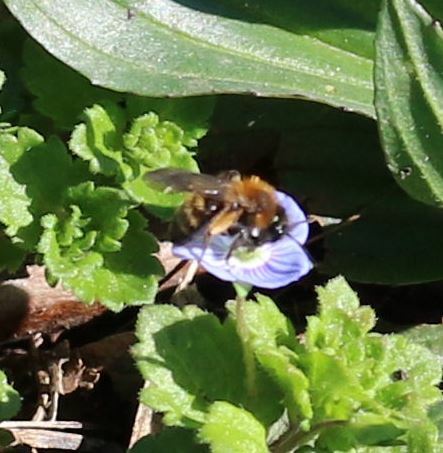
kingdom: Animalia
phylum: Arthropoda
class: Insecta
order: Hymenoptera
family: Andrenidae
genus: Andrena
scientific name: Andrena bicolor
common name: Gwynne's mining bee
